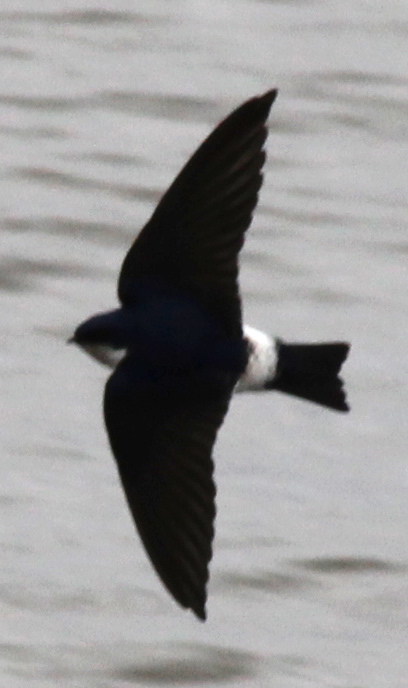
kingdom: Animalia
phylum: Chordata
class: Aves
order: Passeriformes
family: Hirundinidae
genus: Tachycineta
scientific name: Tachycineta leucorrhoa
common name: White-rumped swallow
